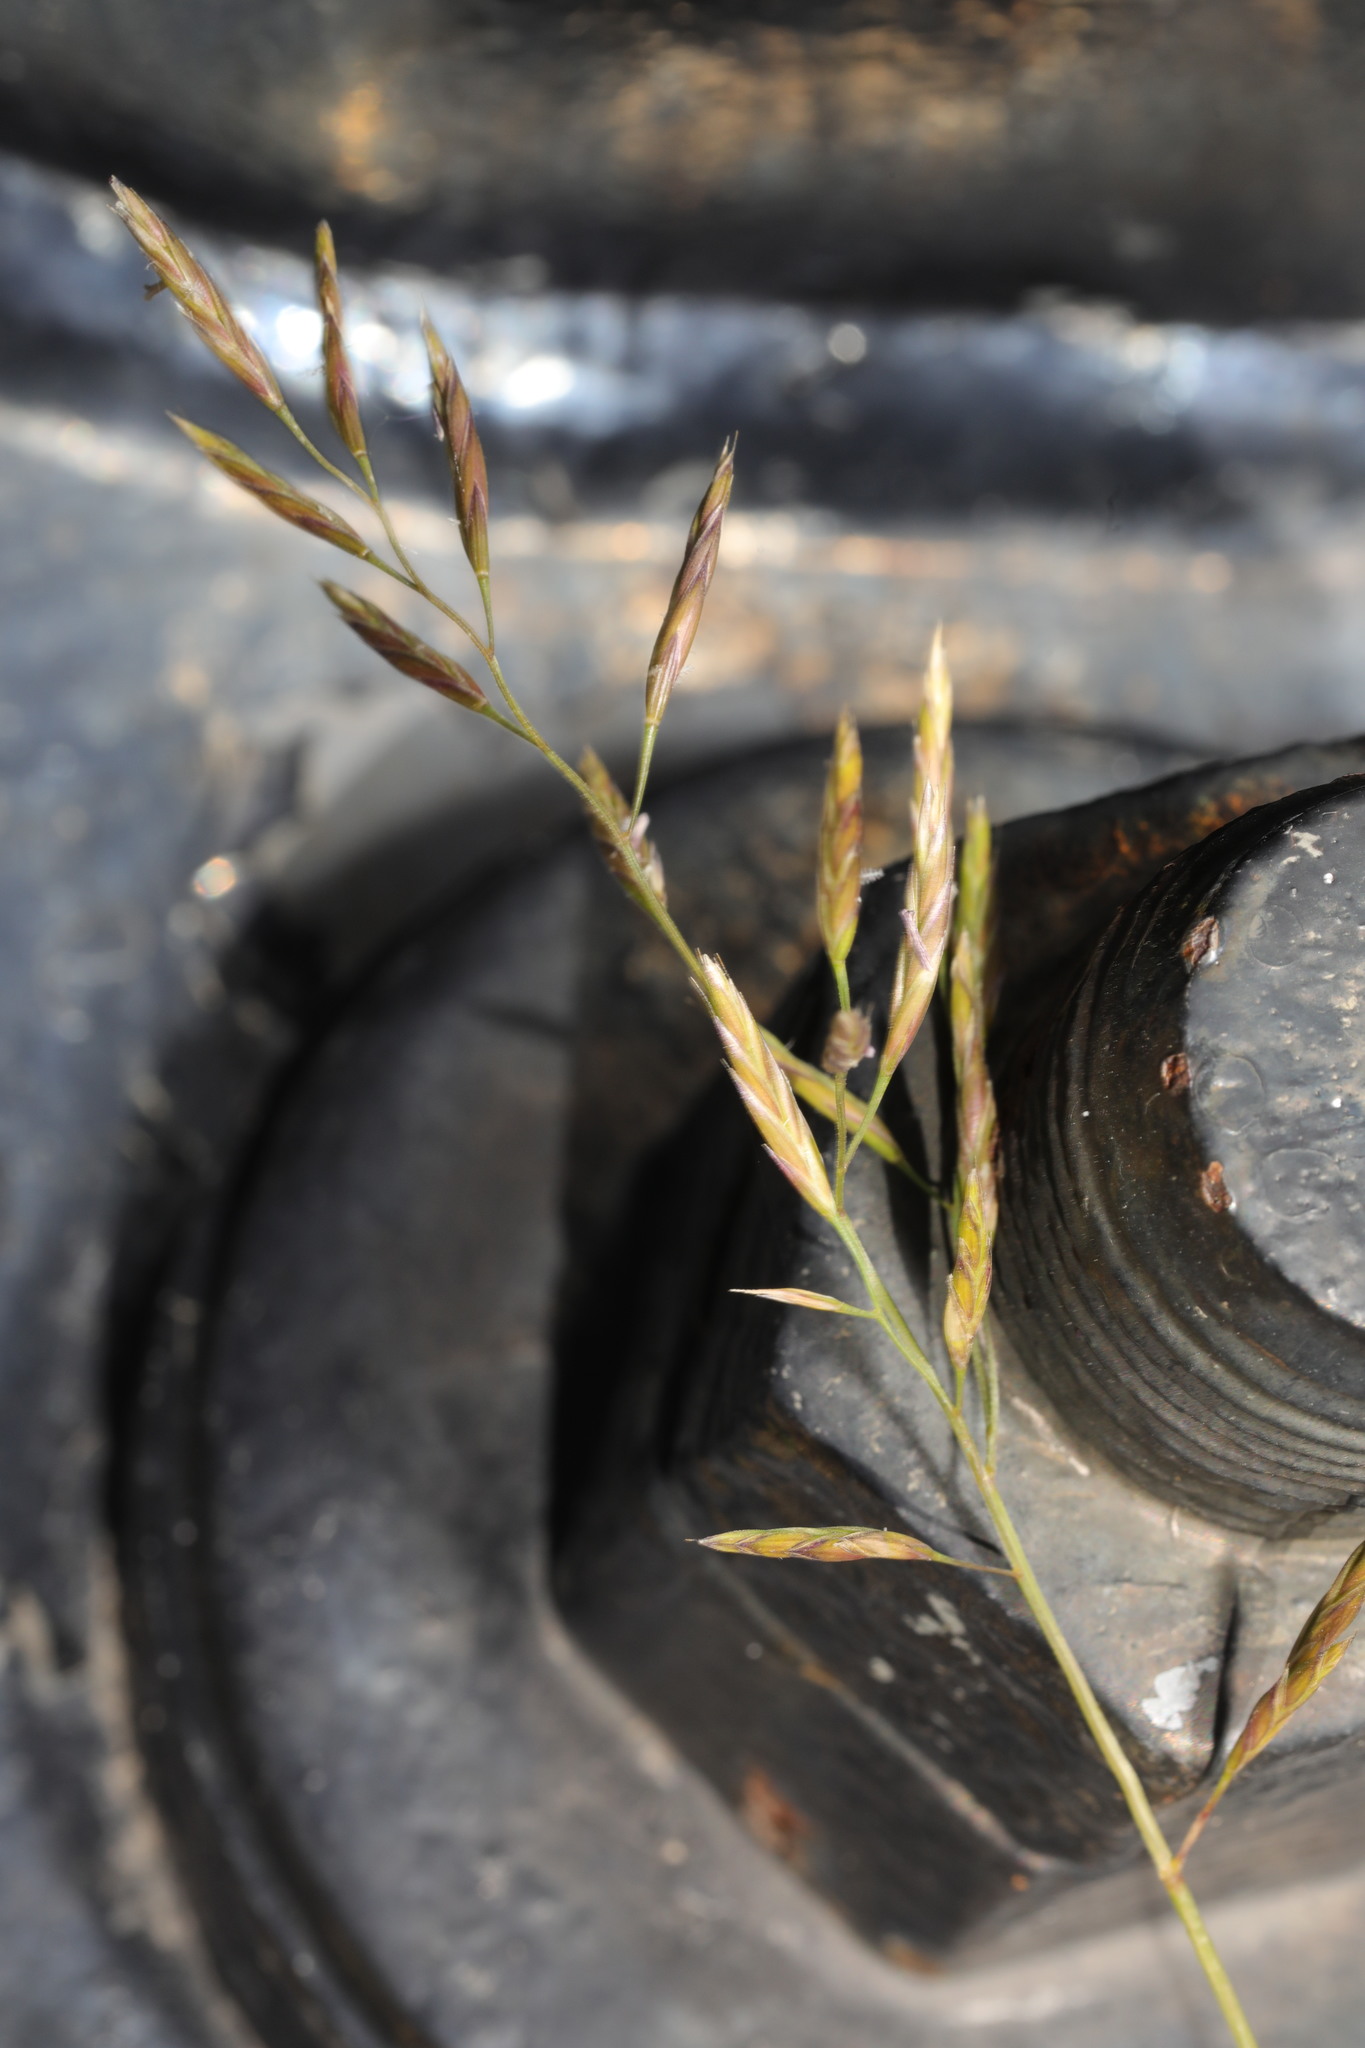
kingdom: Plantae
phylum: Tracheophyta
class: Liliopsida
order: Poales
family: Poaceae
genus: Festuca
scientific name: Festuca rubra
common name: Red fescue
